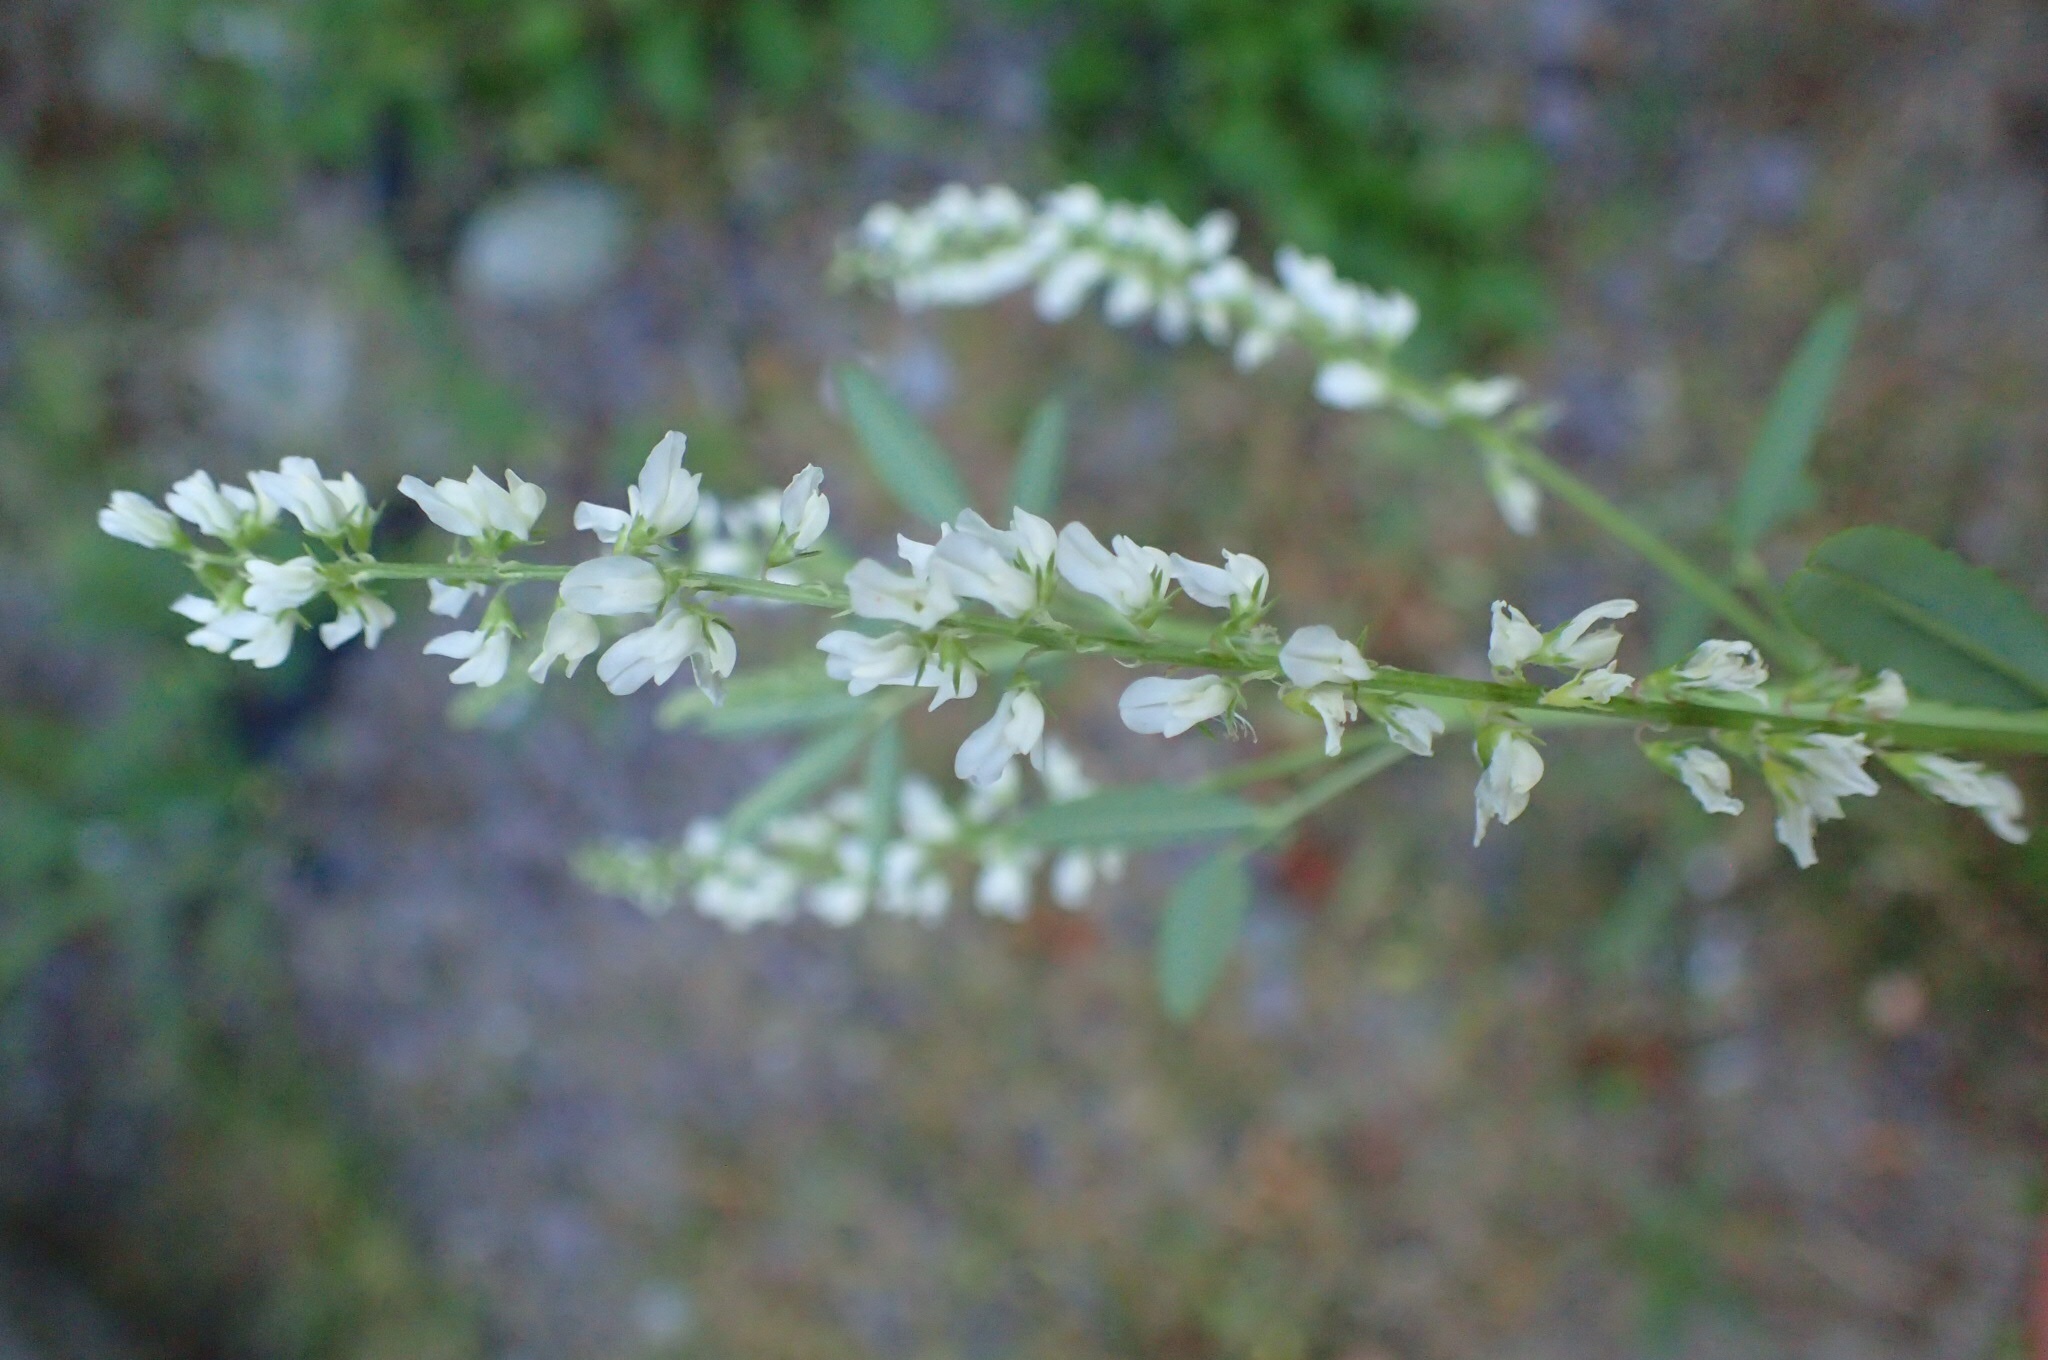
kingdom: Plantae
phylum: Tracheophyta
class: Magnoliopsida
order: Fabales
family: Fabaceae
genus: Melilotus
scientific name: Melilotus albus
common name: White melilot
